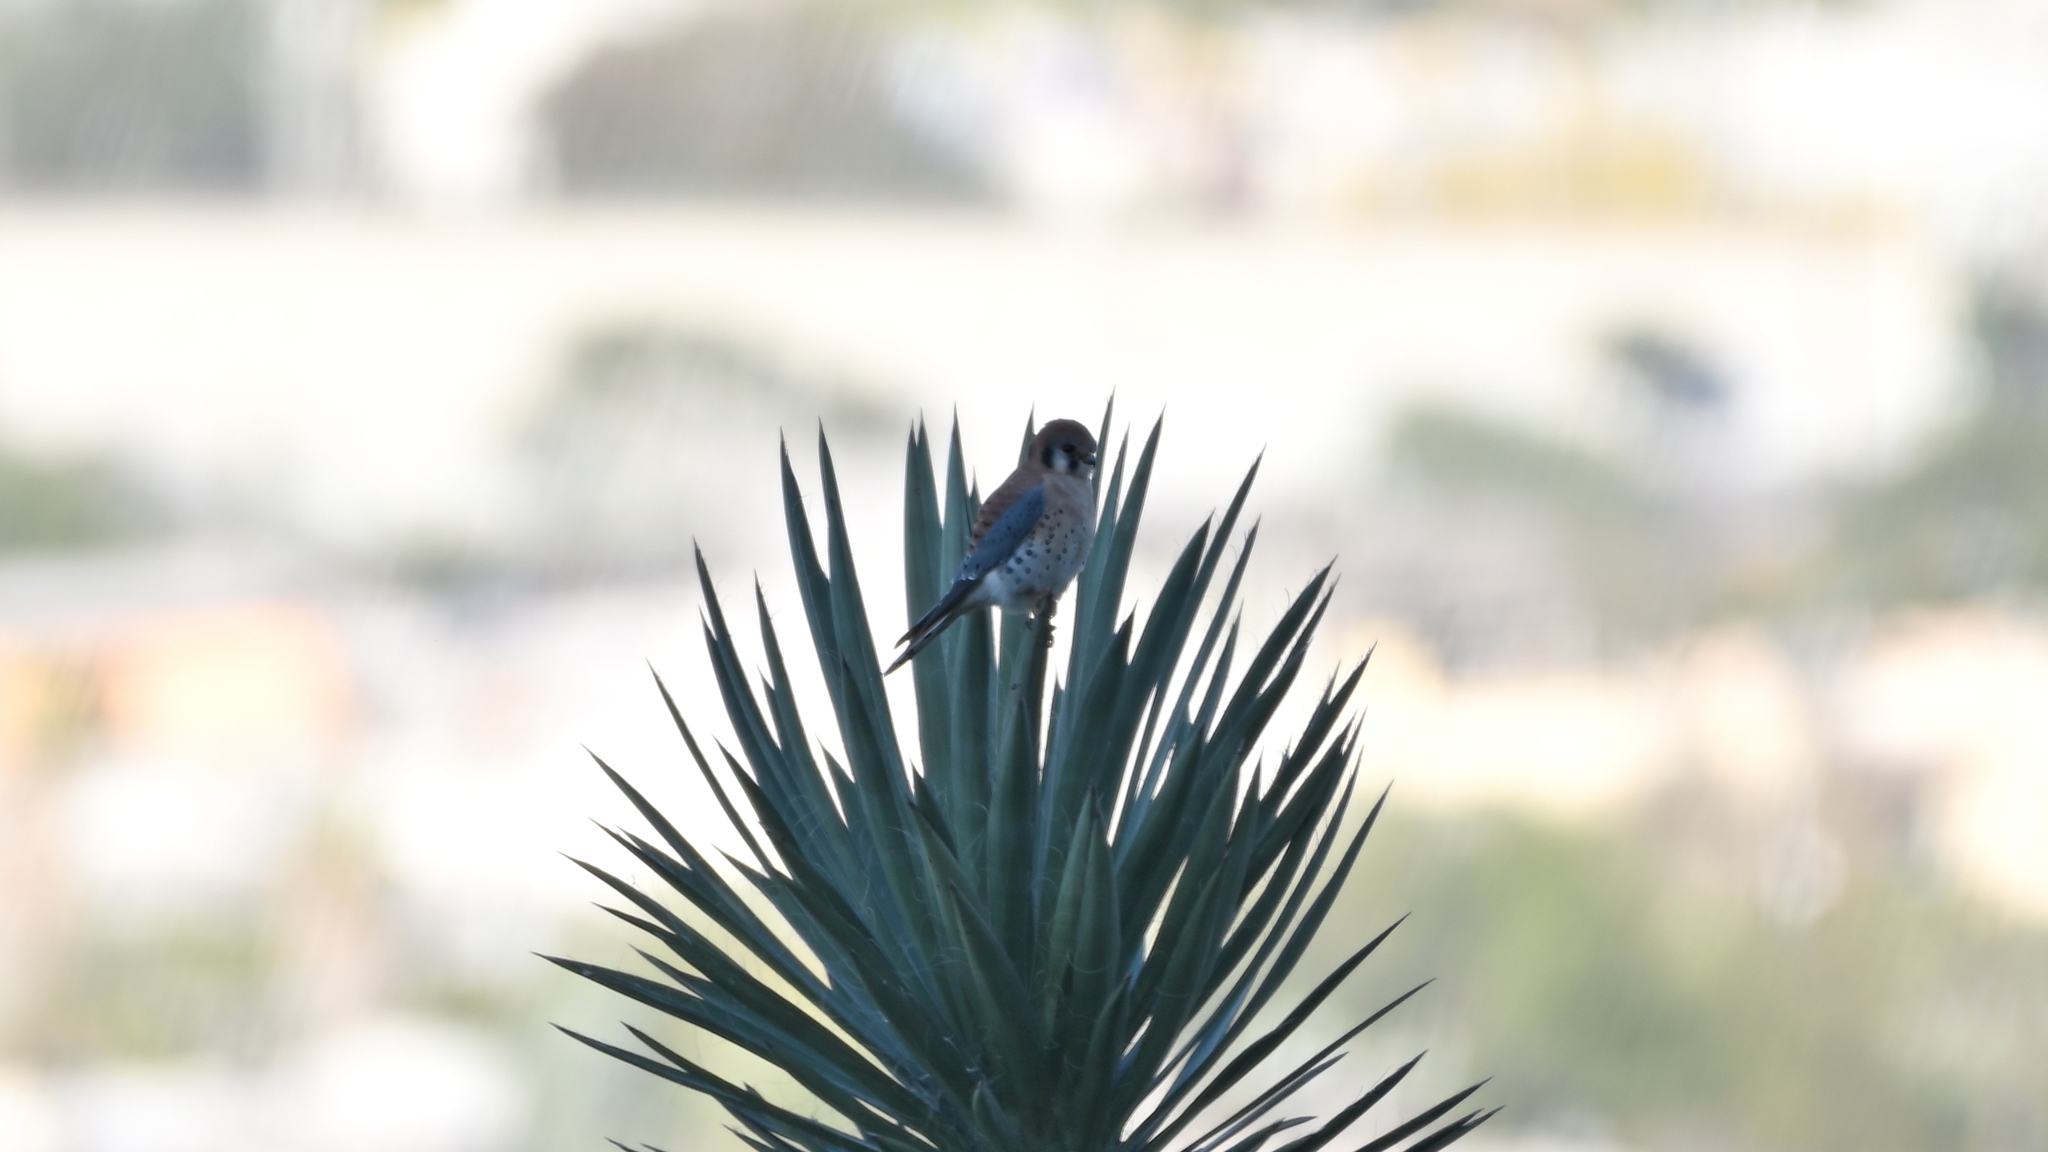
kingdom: Animalia
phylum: Chordata
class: Aves
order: Falconiformes
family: Falconidae
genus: Falco
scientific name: Falco sparverius
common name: American kestrel
